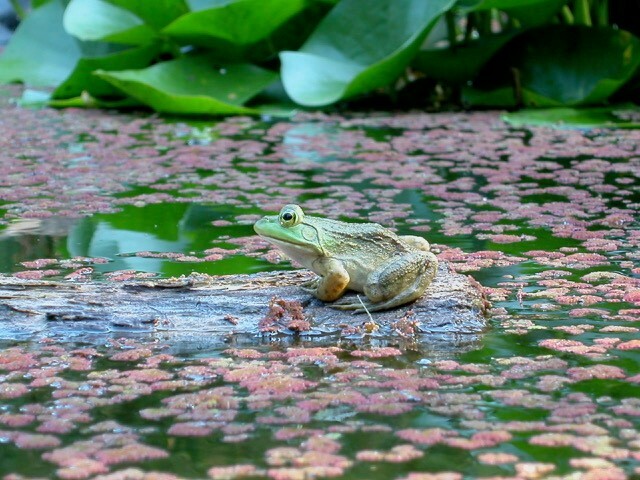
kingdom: Animalia
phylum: Chordata
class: Amphibia
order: Anura
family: Ranidae
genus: Lithobates
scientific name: Lithobates catesbeianus
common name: American bullfrog
